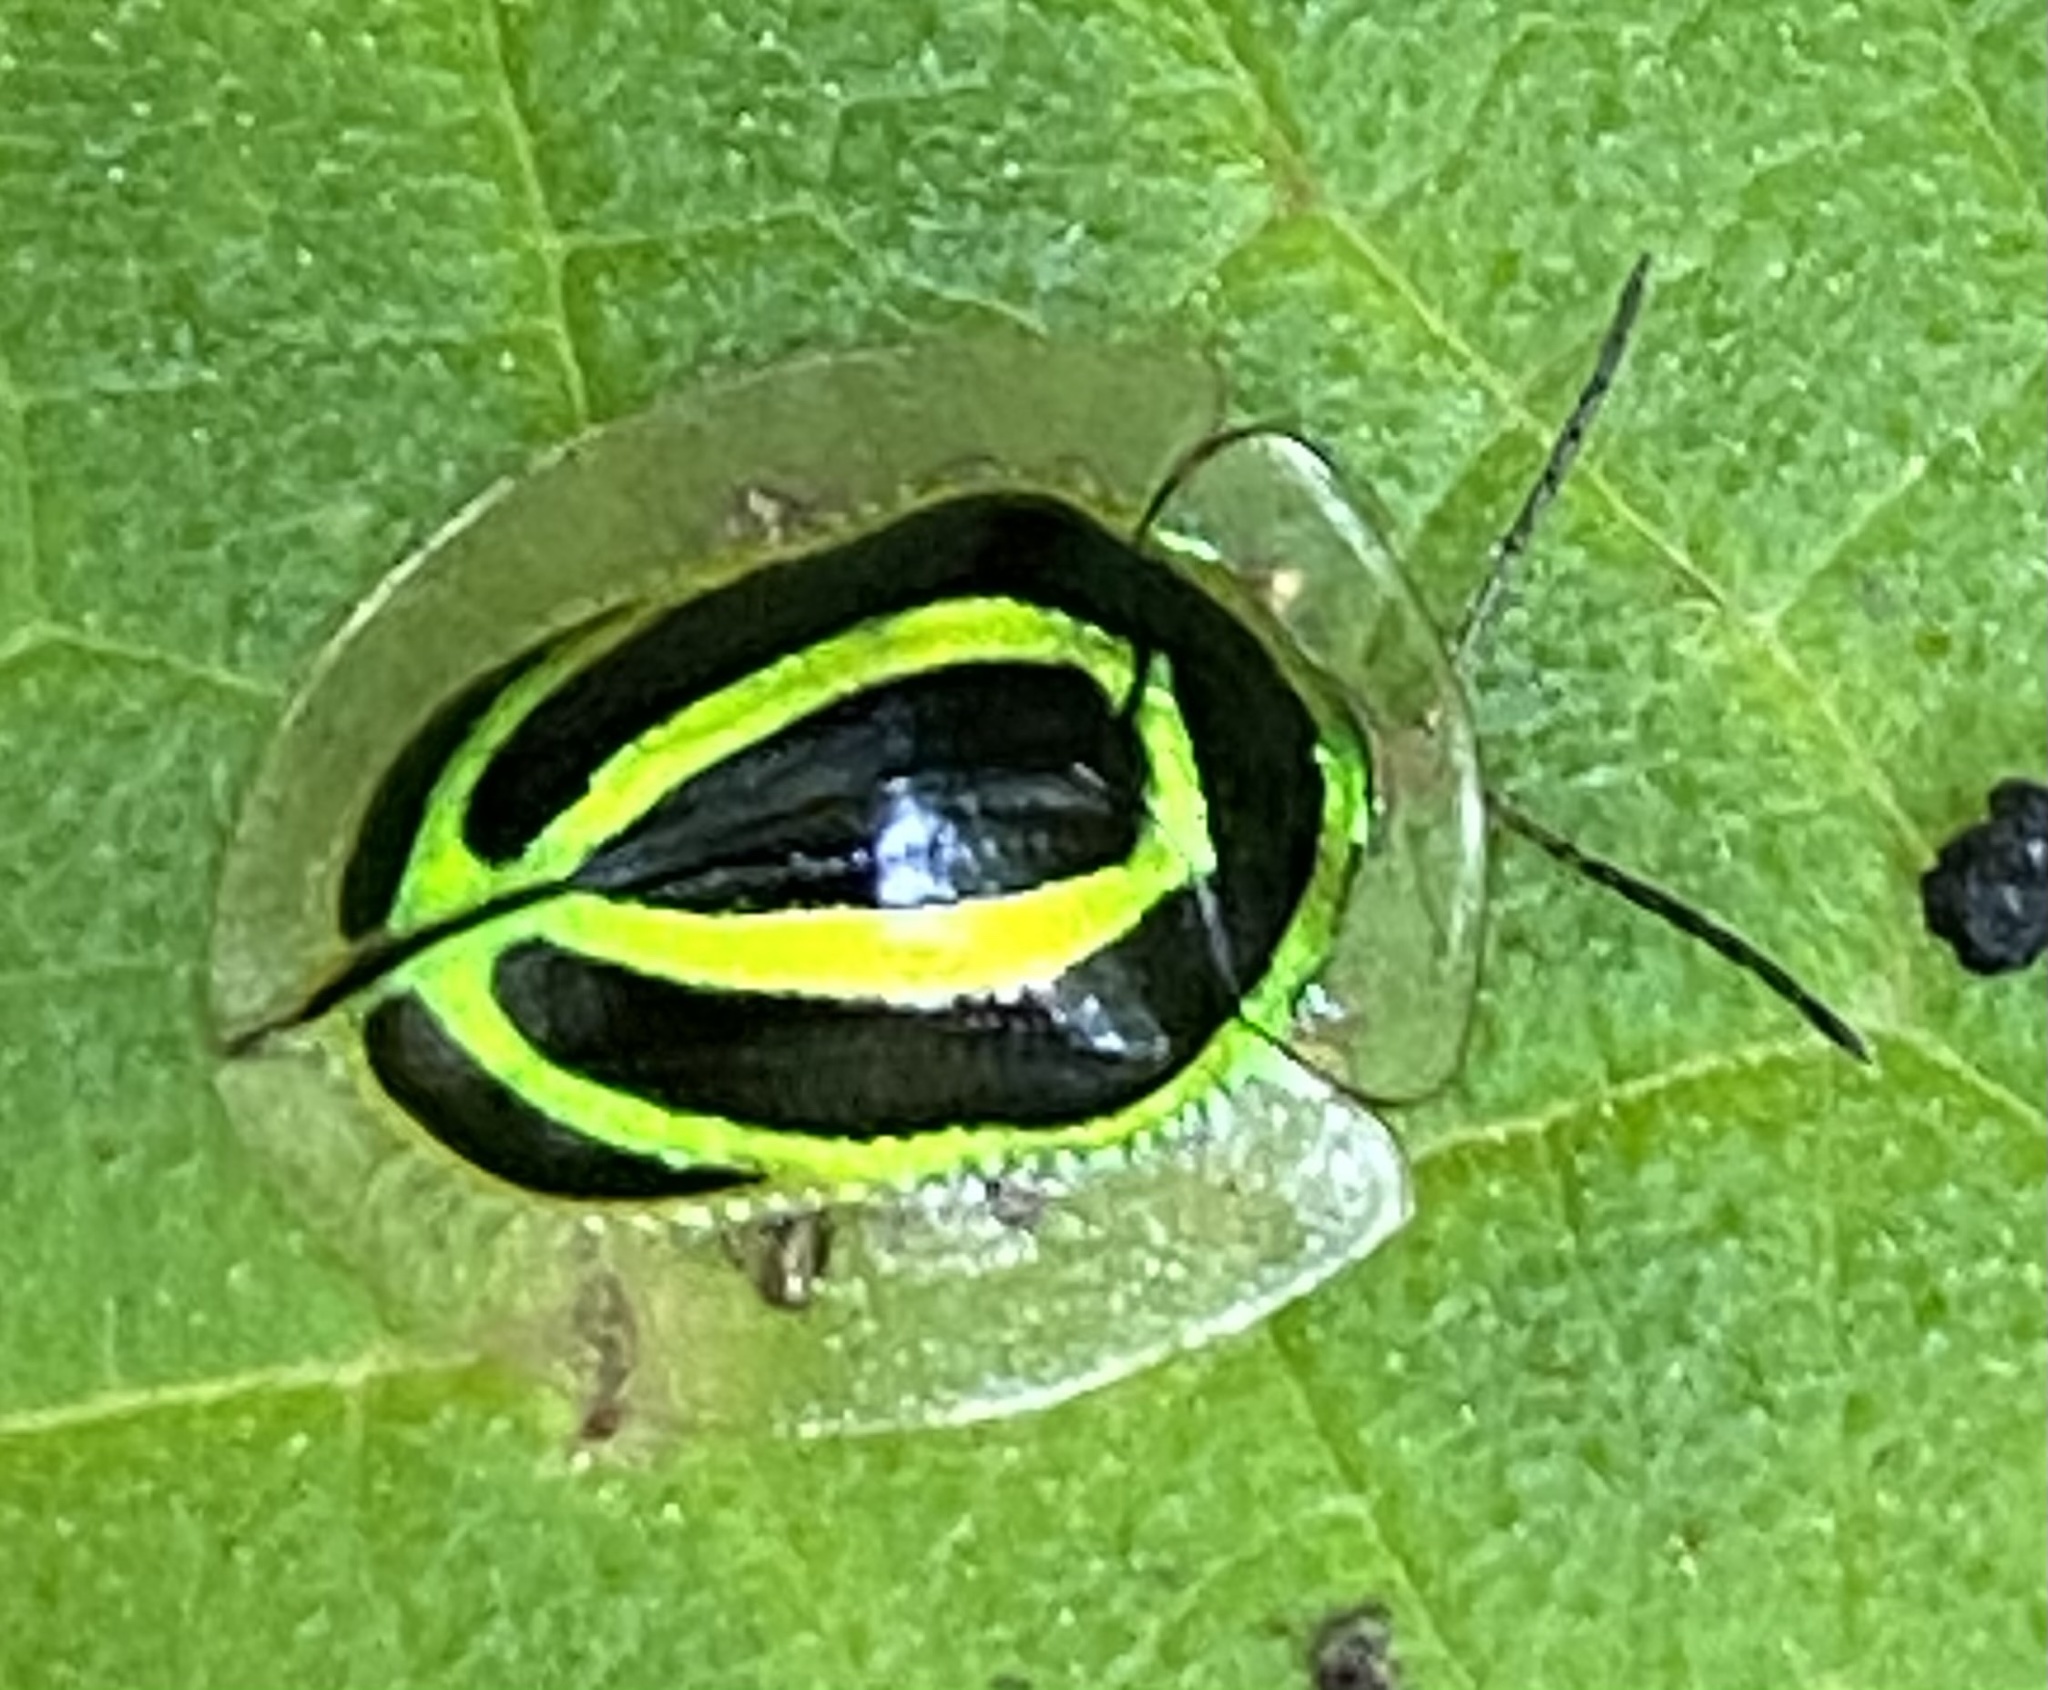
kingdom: Animalia
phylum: Arthropoda
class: Insecta
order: Coleoptera
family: Chrysomelidae
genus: Coptocycla
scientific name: Coptocycla arcuata
